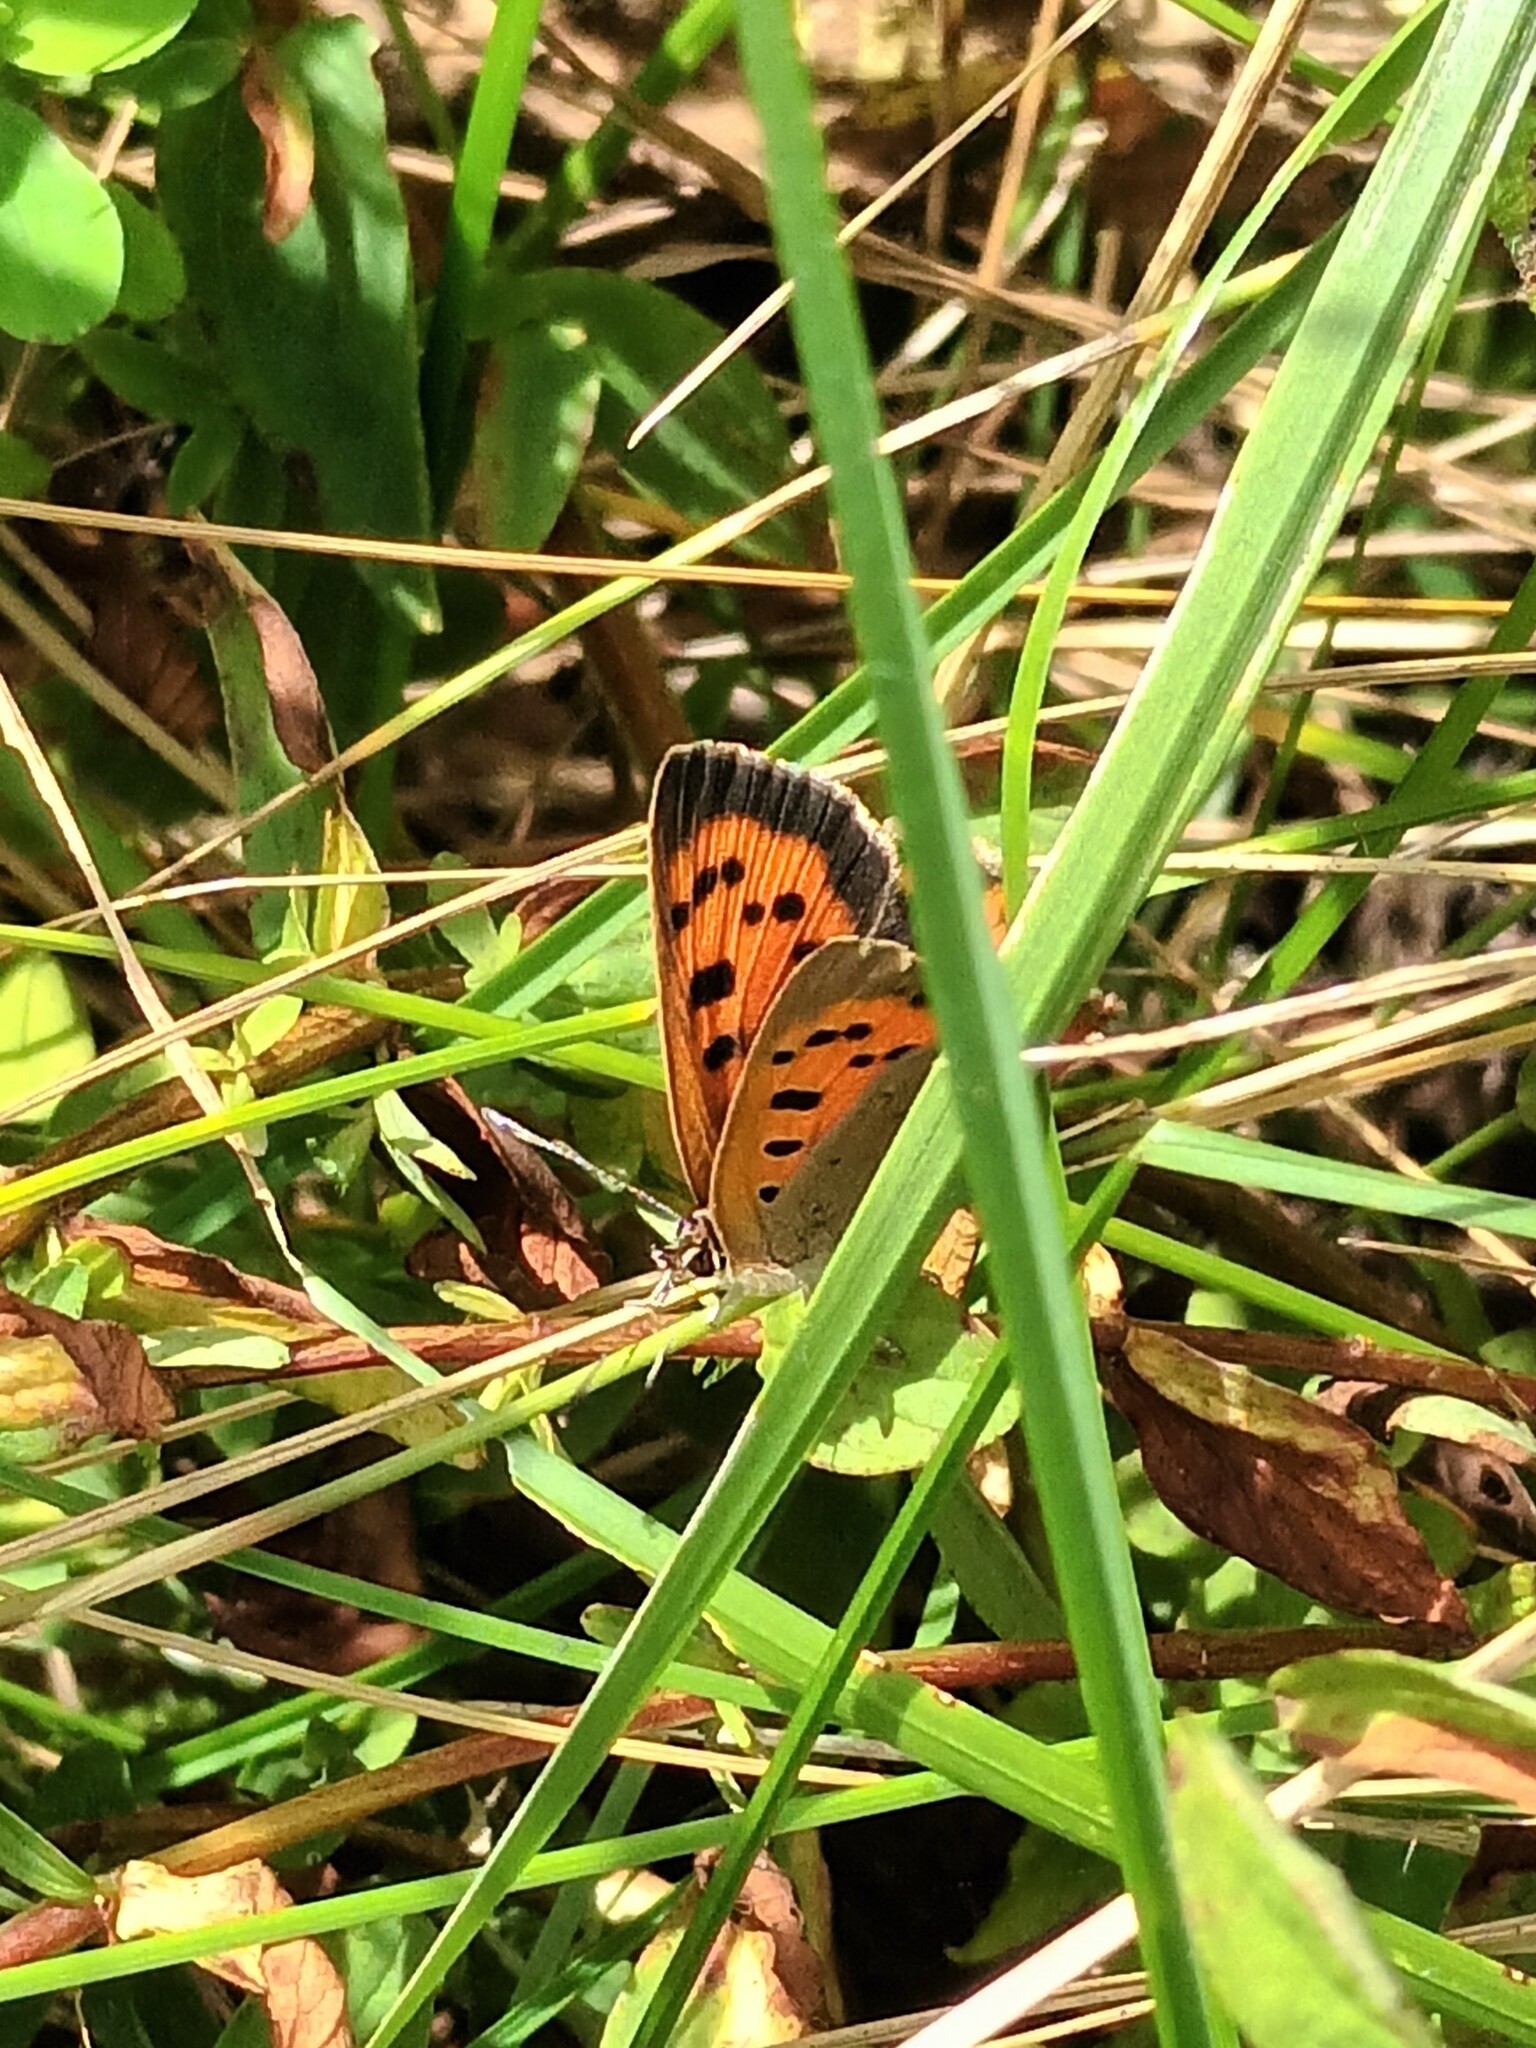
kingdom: Animalia
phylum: Arthropoda
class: Insecta
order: Lepidoptera
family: Lycaenidae
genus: Lycaena
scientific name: Lycaena phlaeas
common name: Small copper
